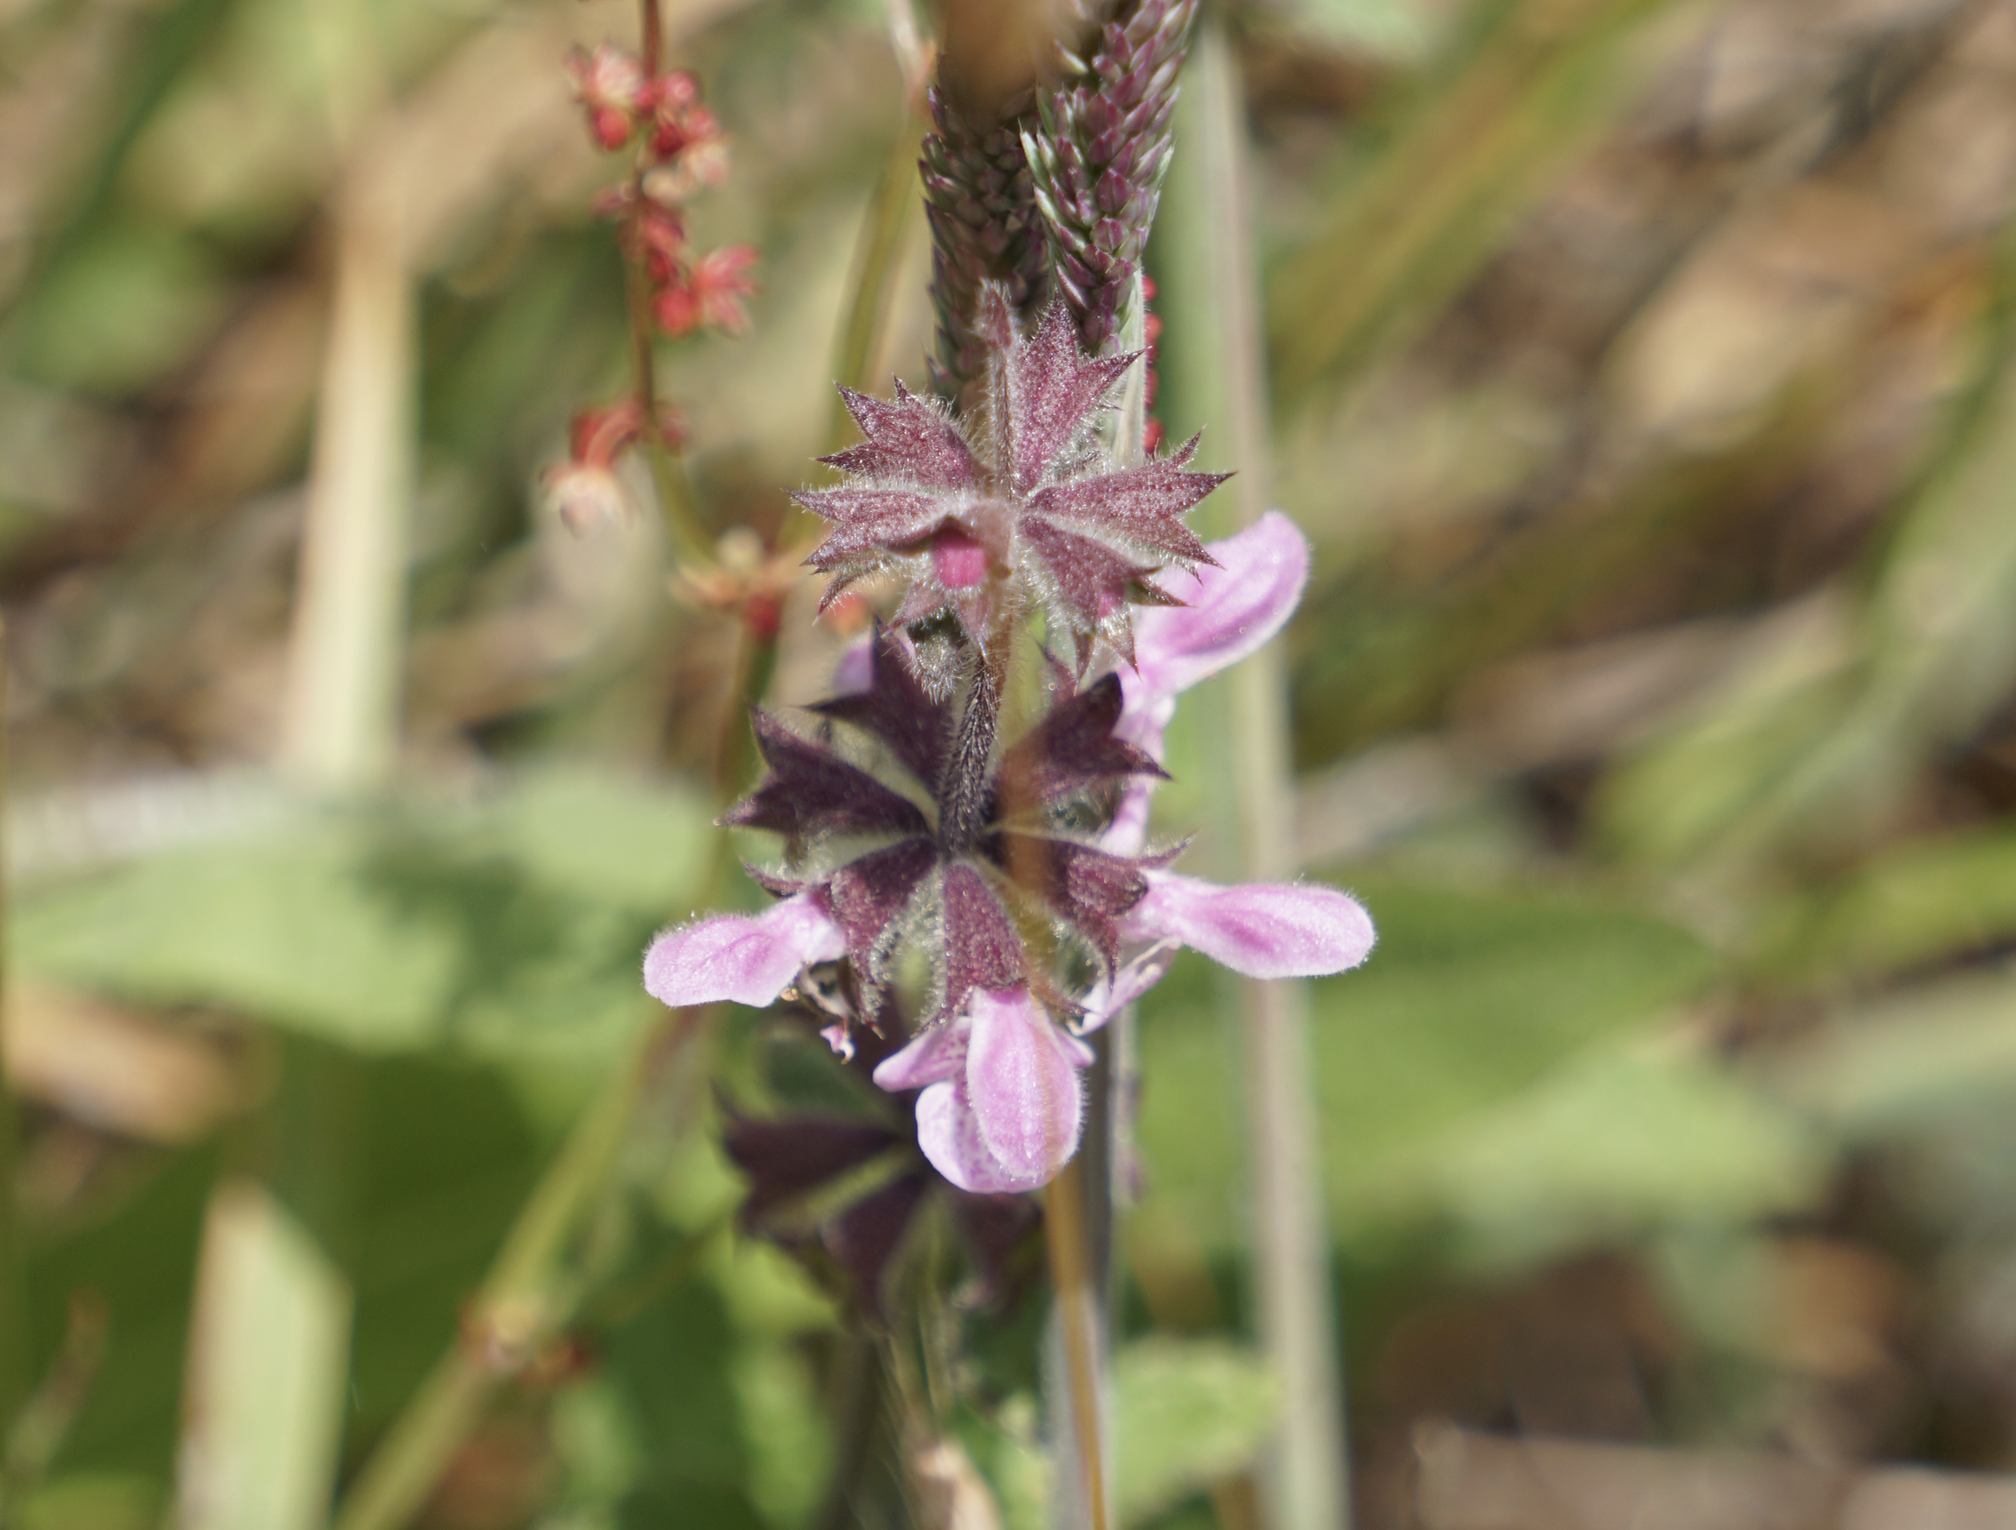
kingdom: Plantae
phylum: Tracheophyta
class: Magnoliopsida
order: Lamiales
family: Lamiaceae
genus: Stachys
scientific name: Stachys rigida
